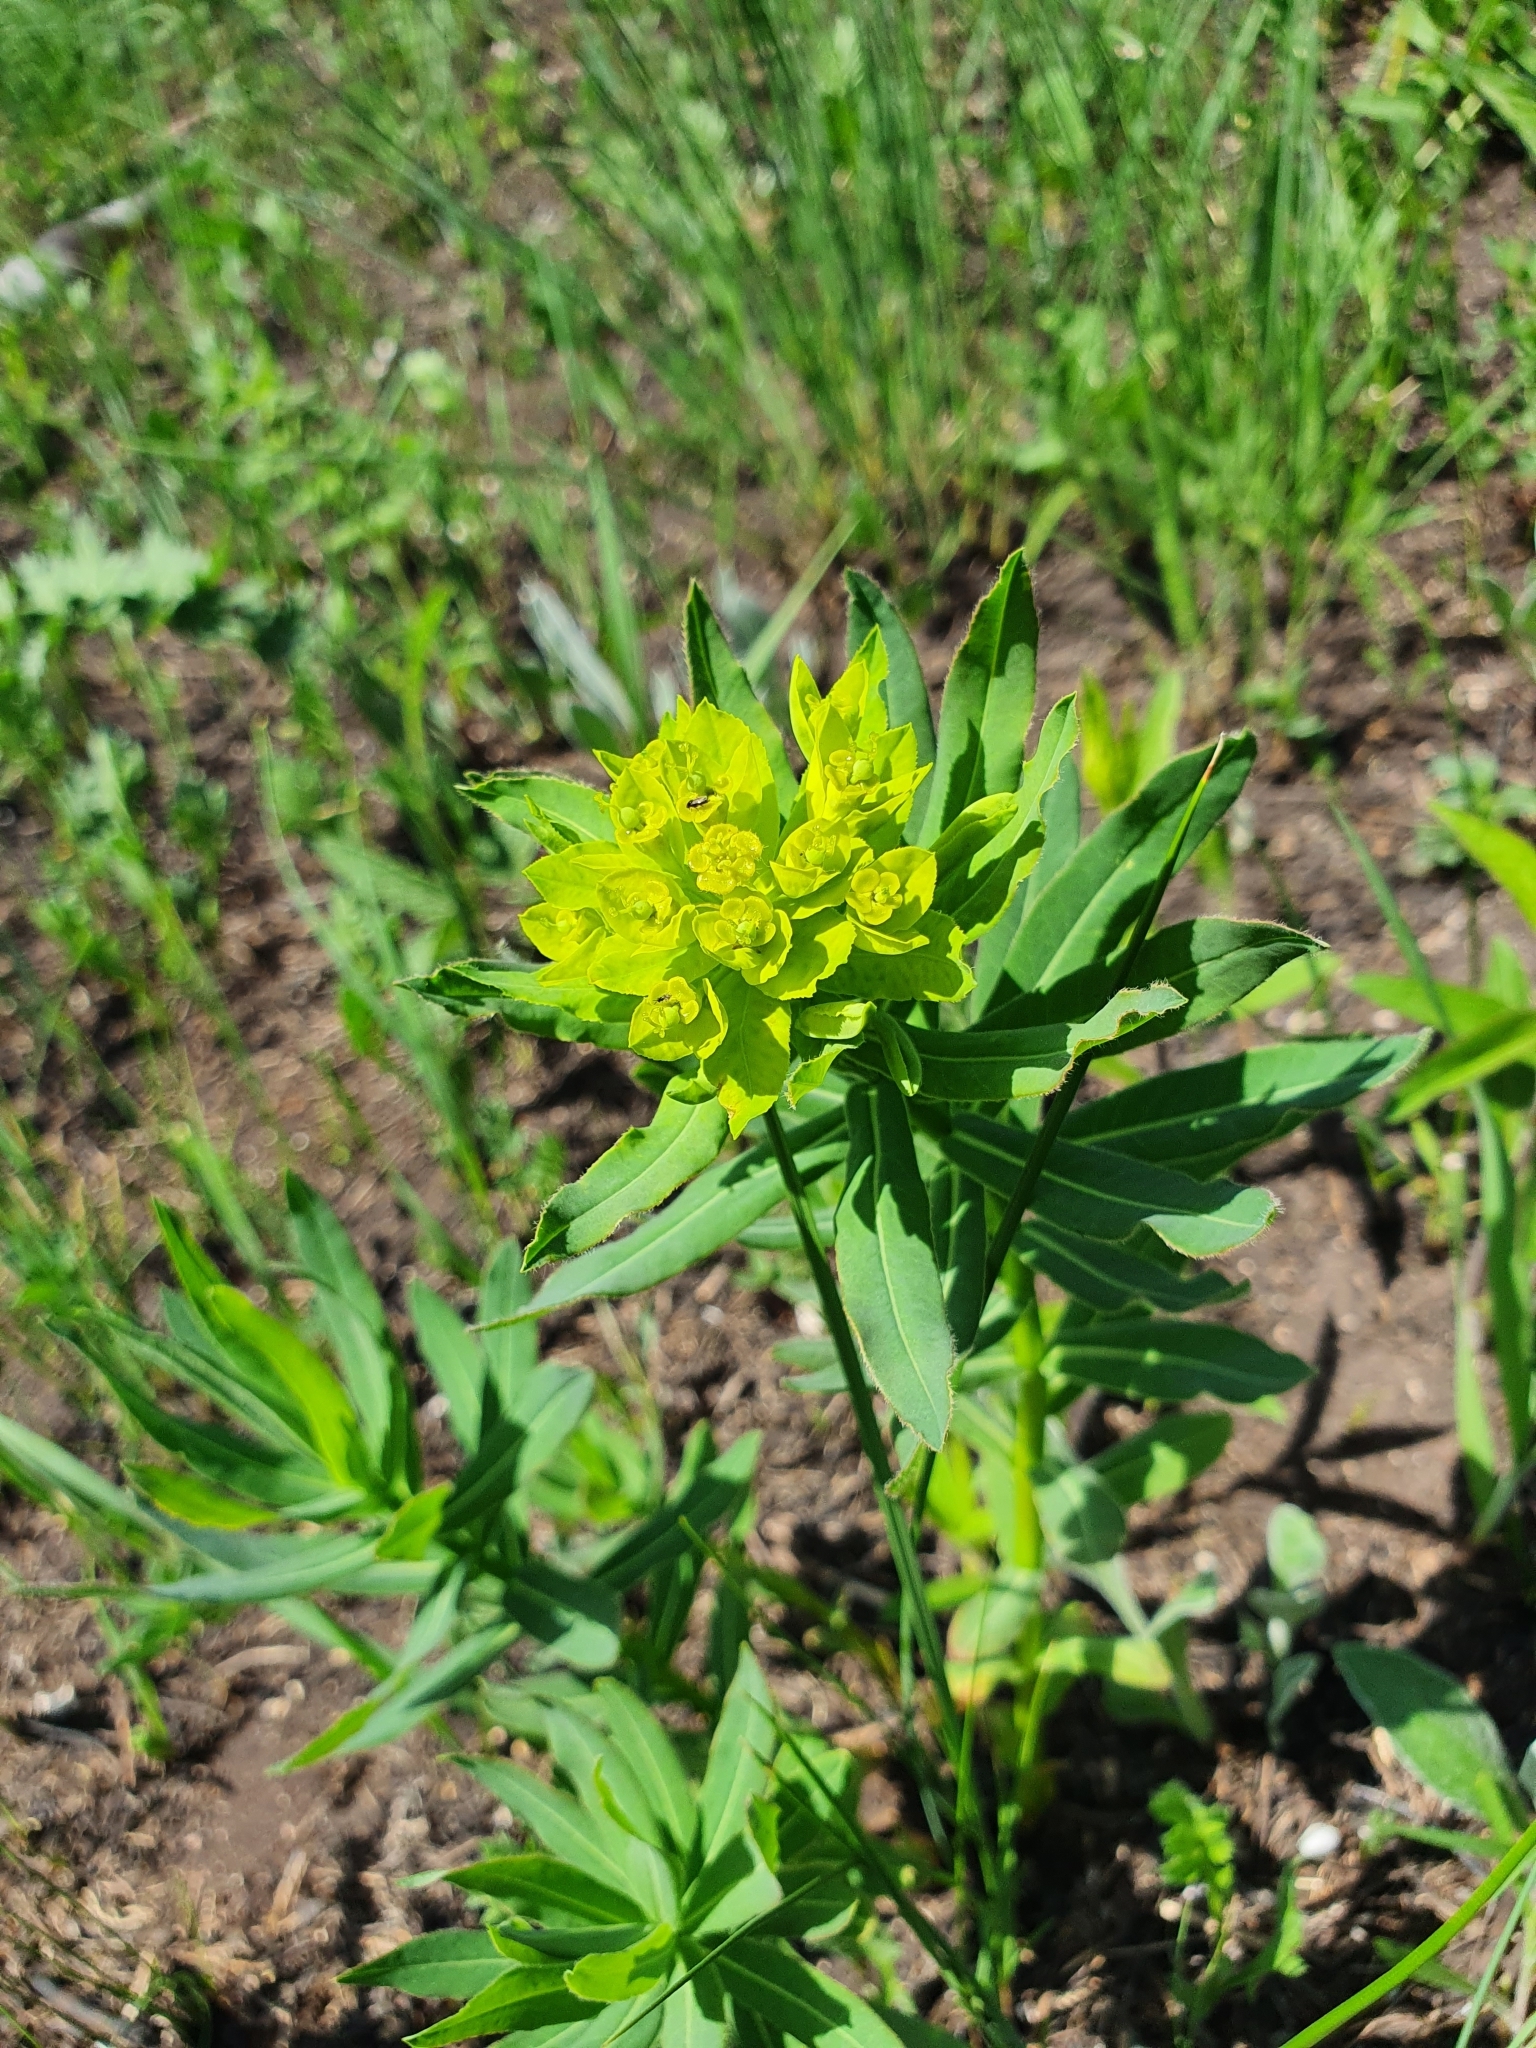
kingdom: Plantae
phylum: Tracheophyta
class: Magnoliopsida
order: Malpighiales
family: Euphorbiaceae
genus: Euphorbia
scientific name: Euphorbia semivillosa
